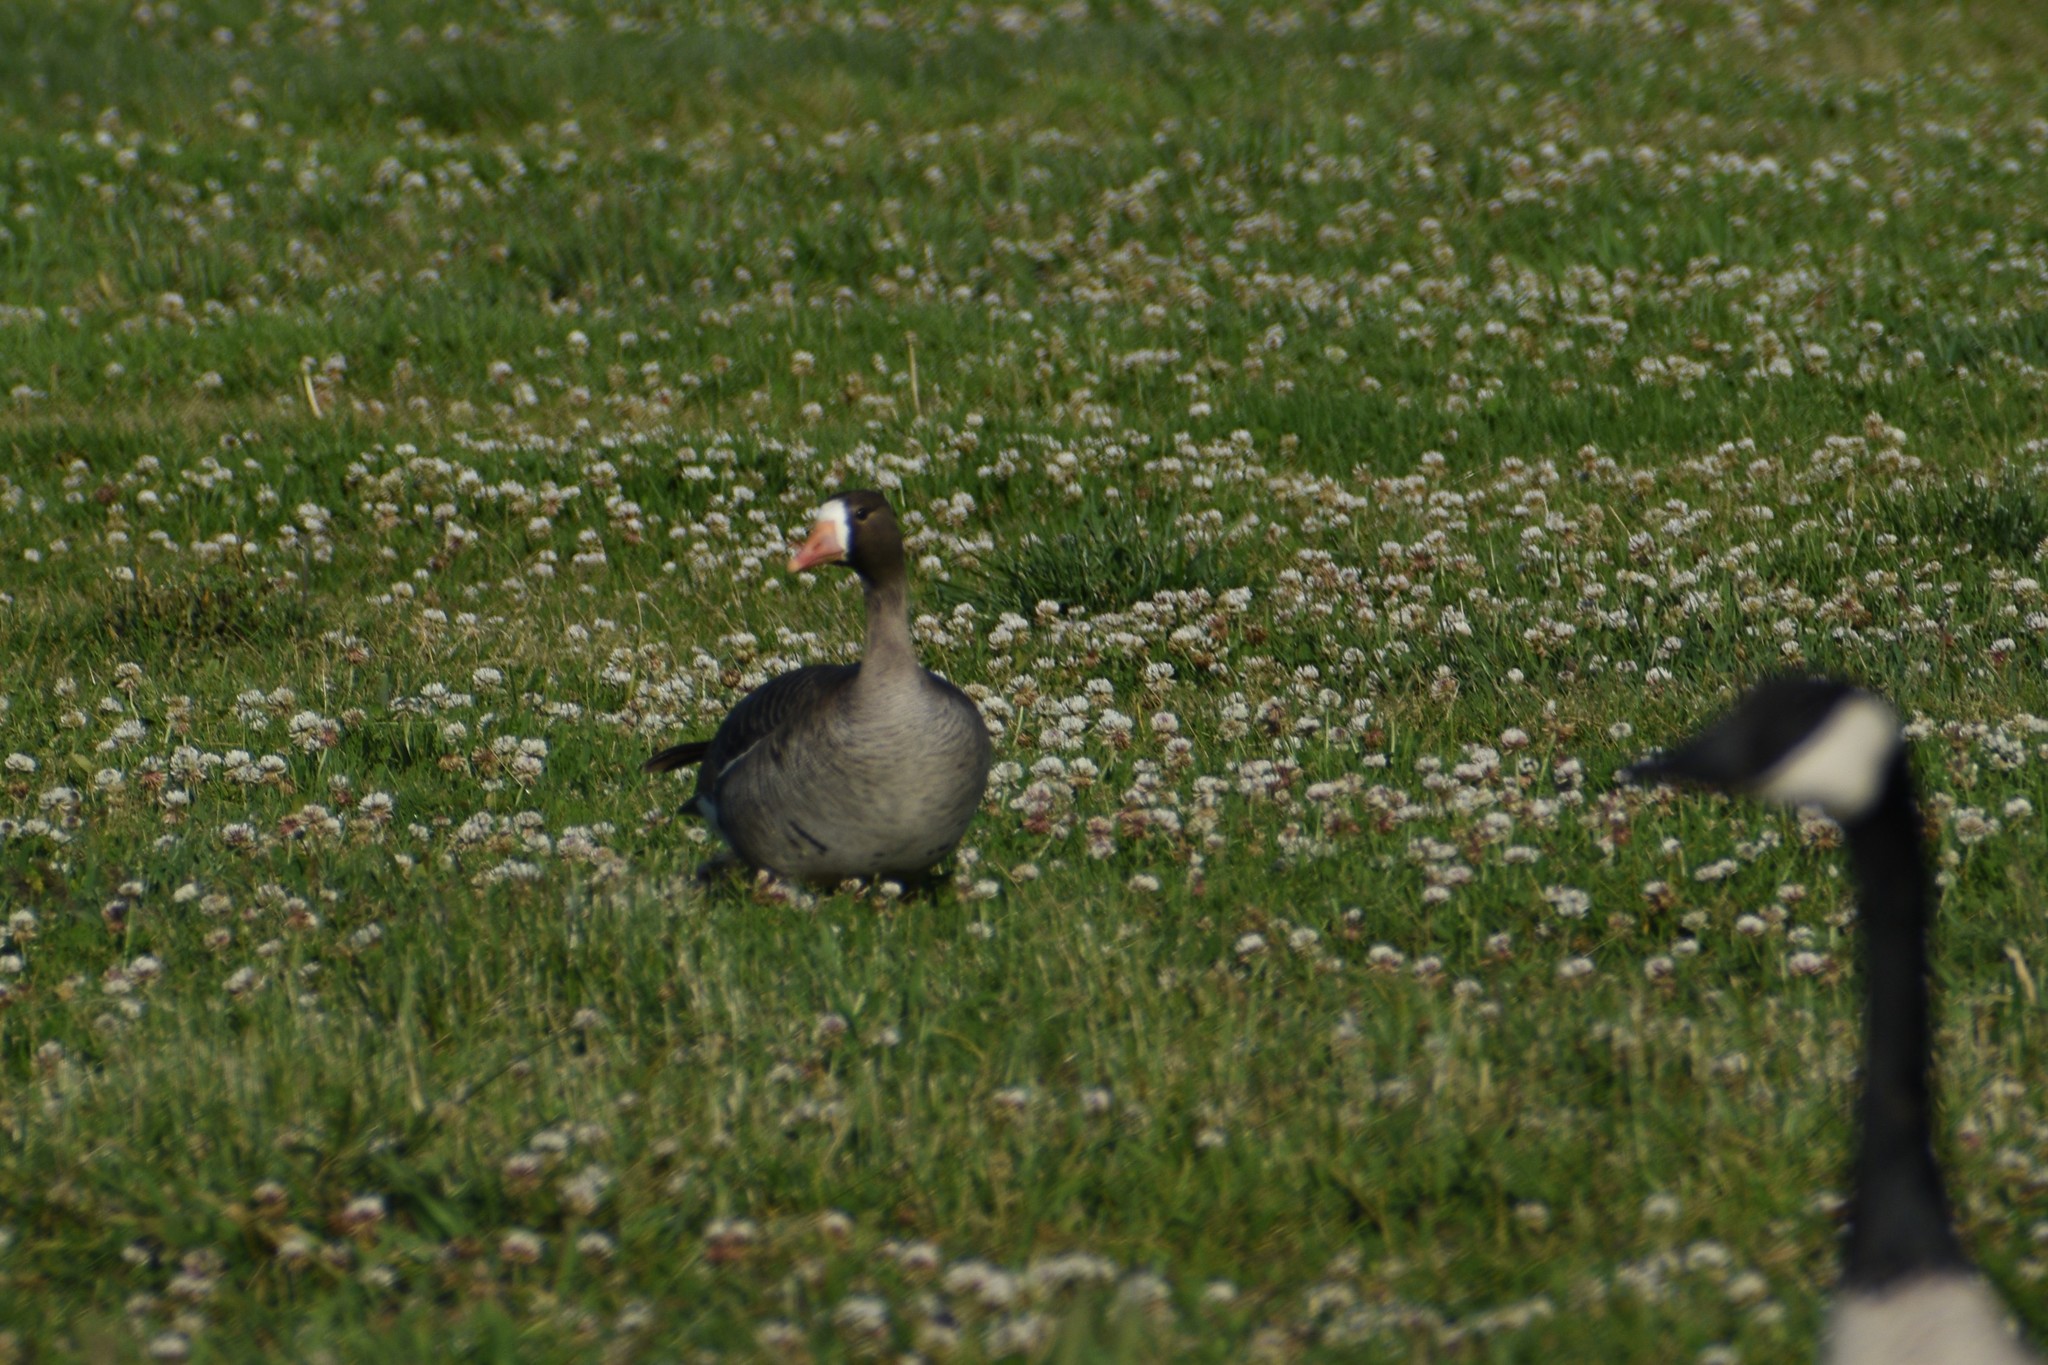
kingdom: Animalia
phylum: Chordata
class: Aves
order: Anseriformes
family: Anatidae
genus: Anser
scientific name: Anser albifrons
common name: Greater white-fronted goose
